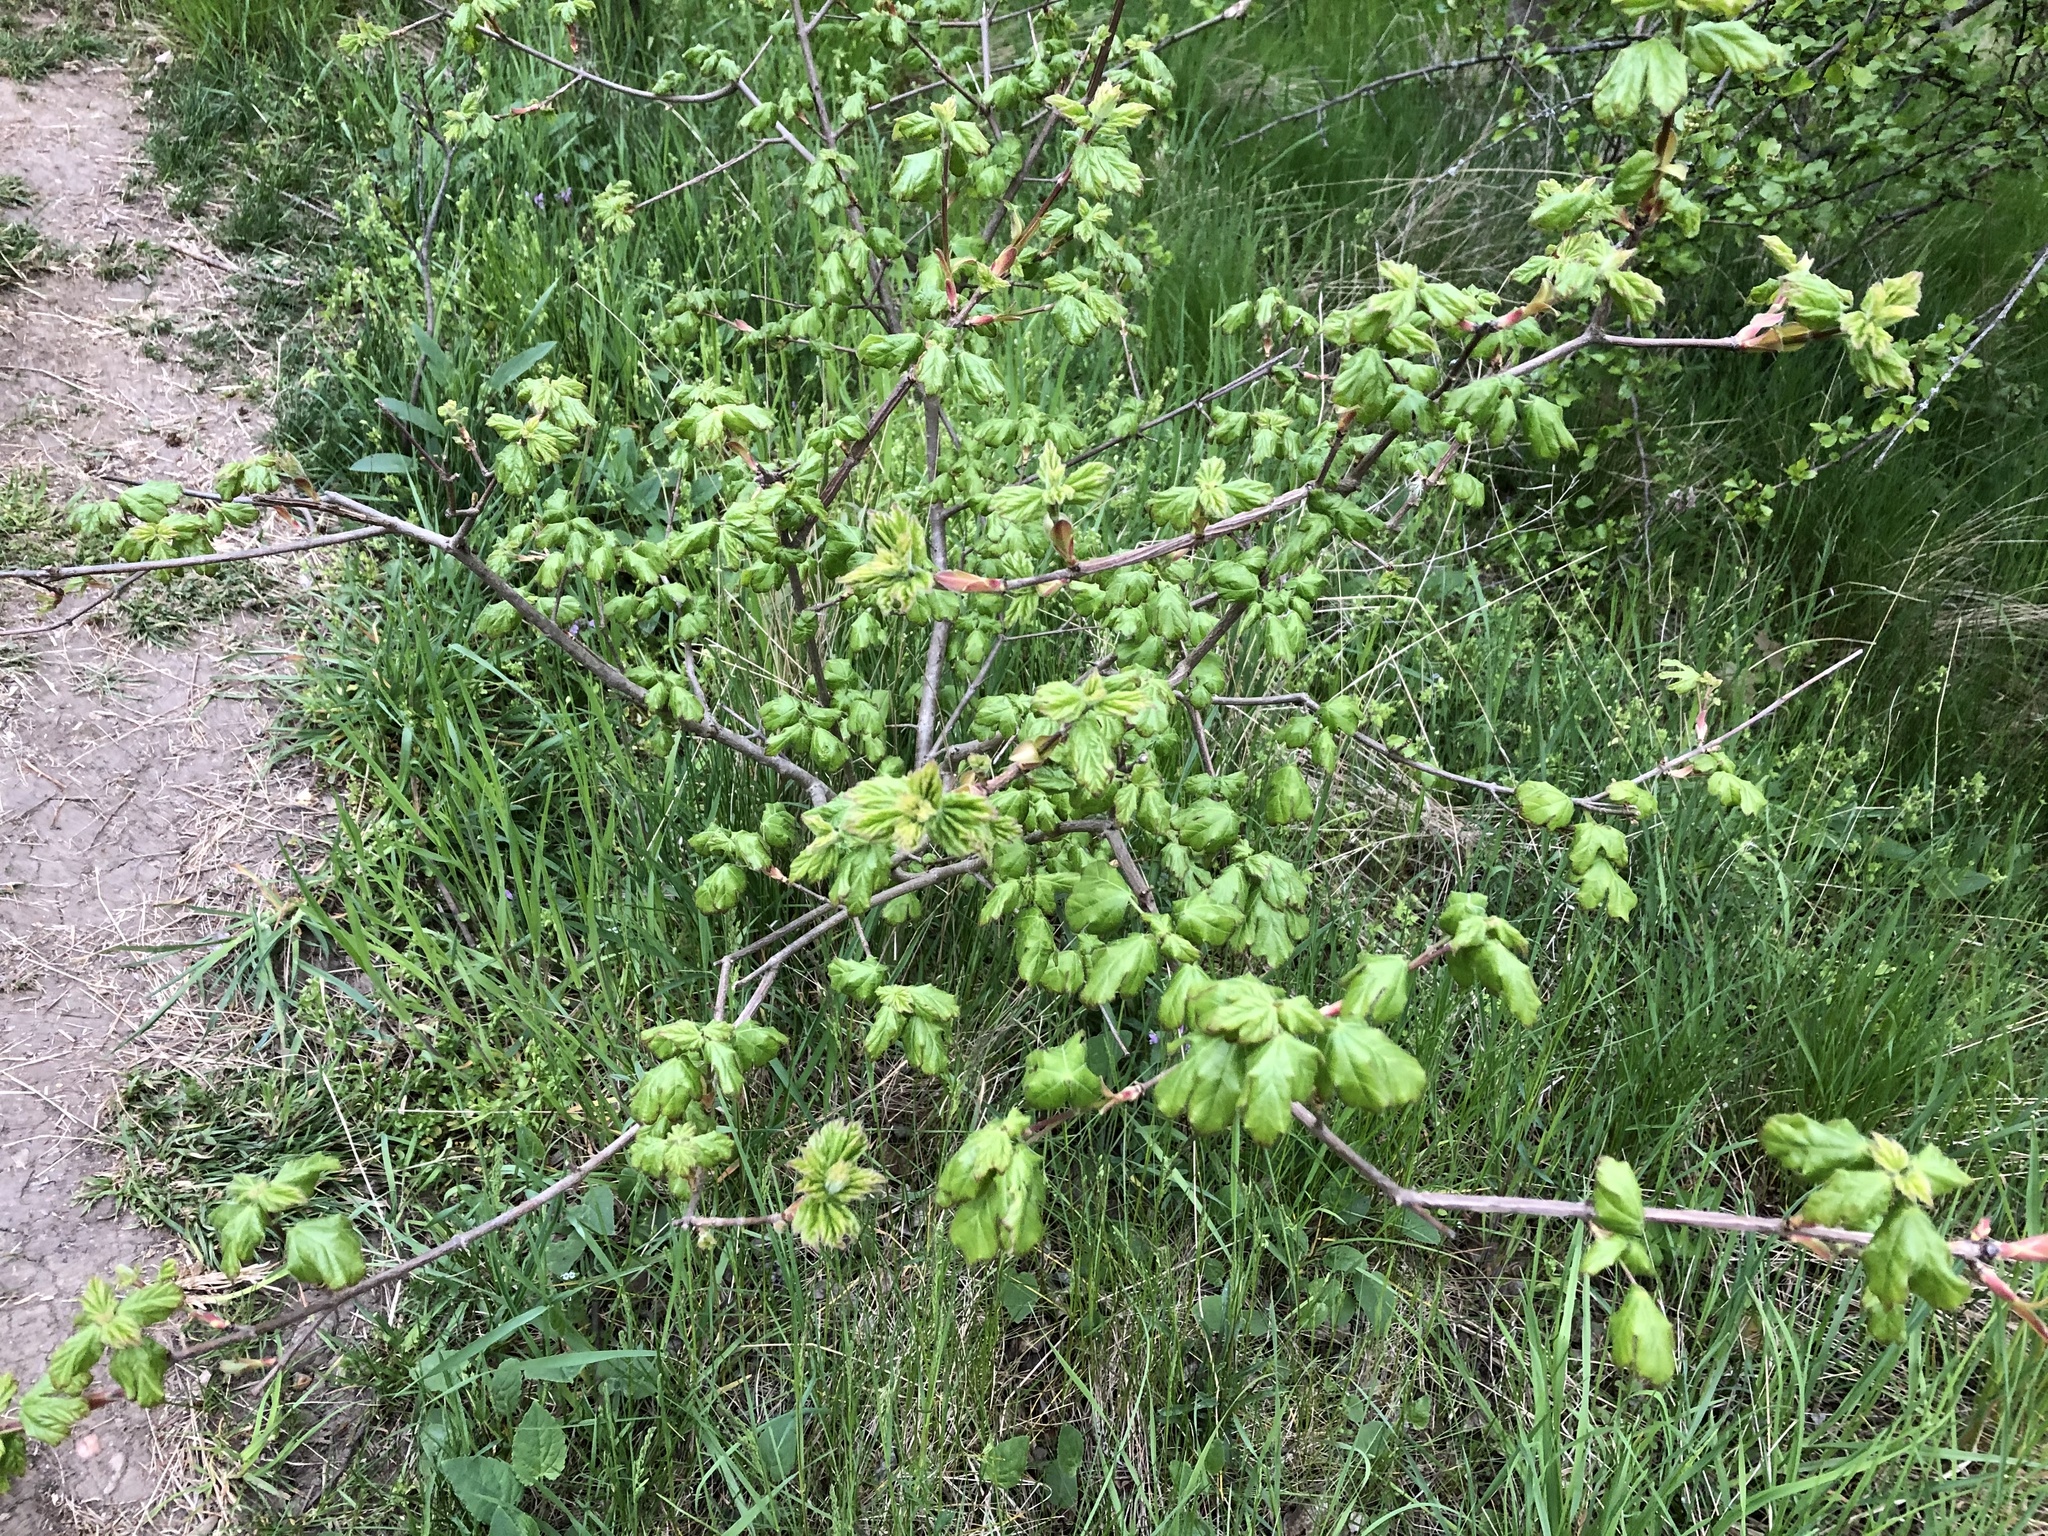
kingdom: Plantae
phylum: Tracheophyta
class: Magnoliopsida
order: Sapindales
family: Sapindaceae
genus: Acer
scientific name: Acer campestre
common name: Field maple
